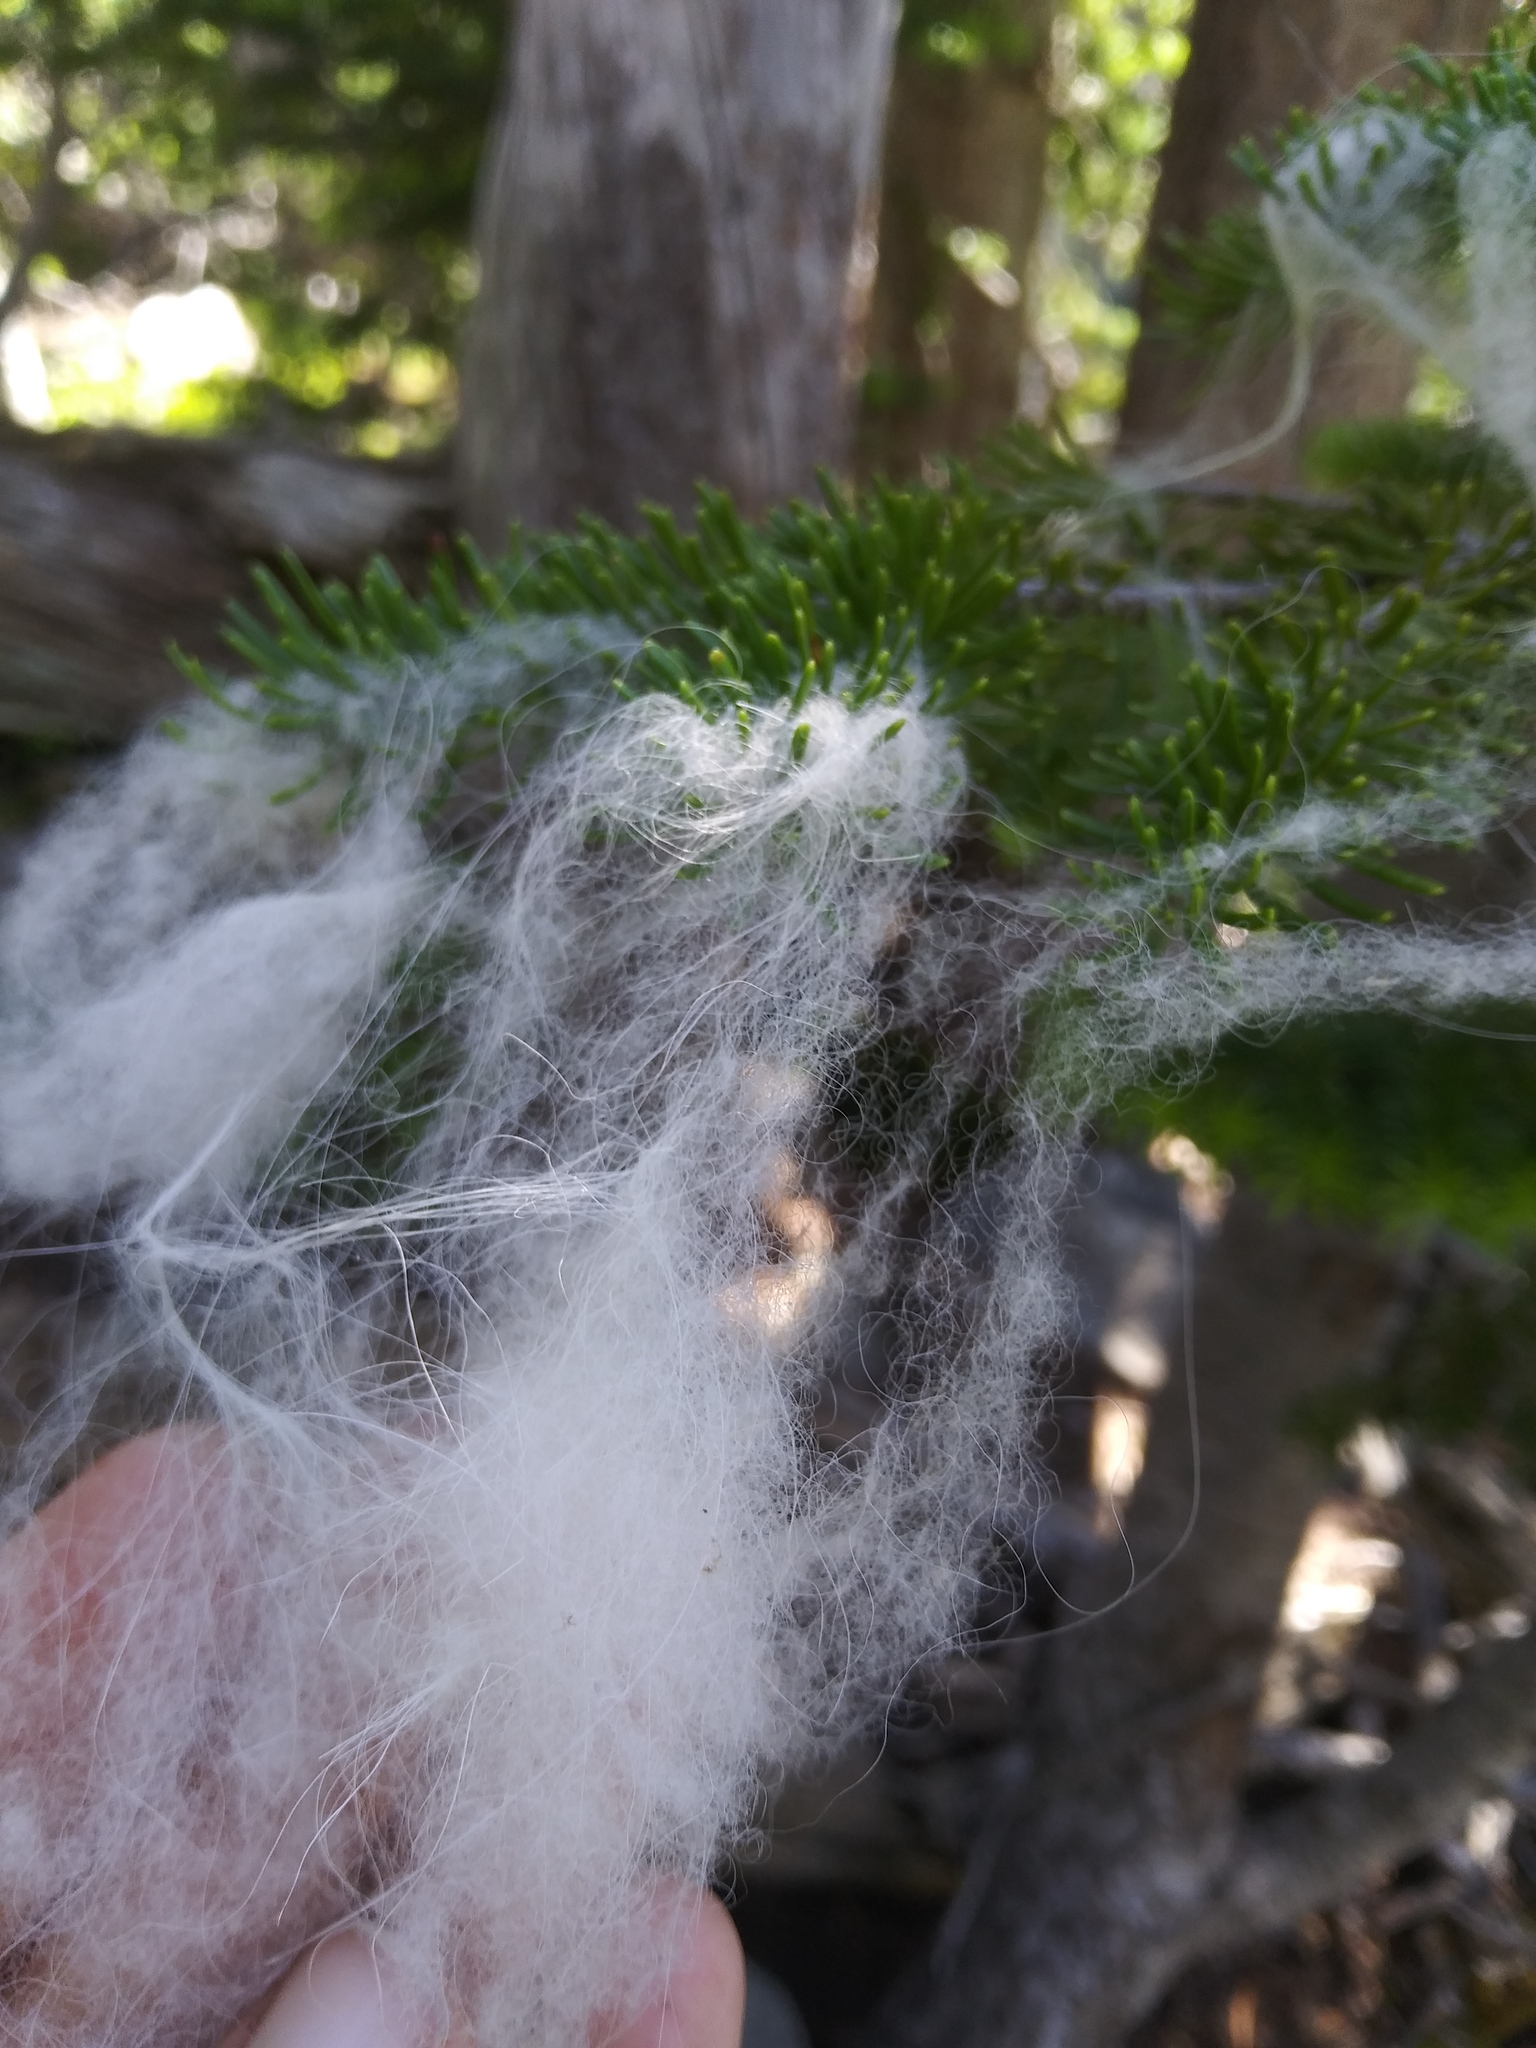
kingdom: Animalia
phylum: Chordata
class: Mammalia
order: Artiodactyla
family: Bovidae
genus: Oreamnos
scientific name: Oreamnos americanus
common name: Mountain goat
